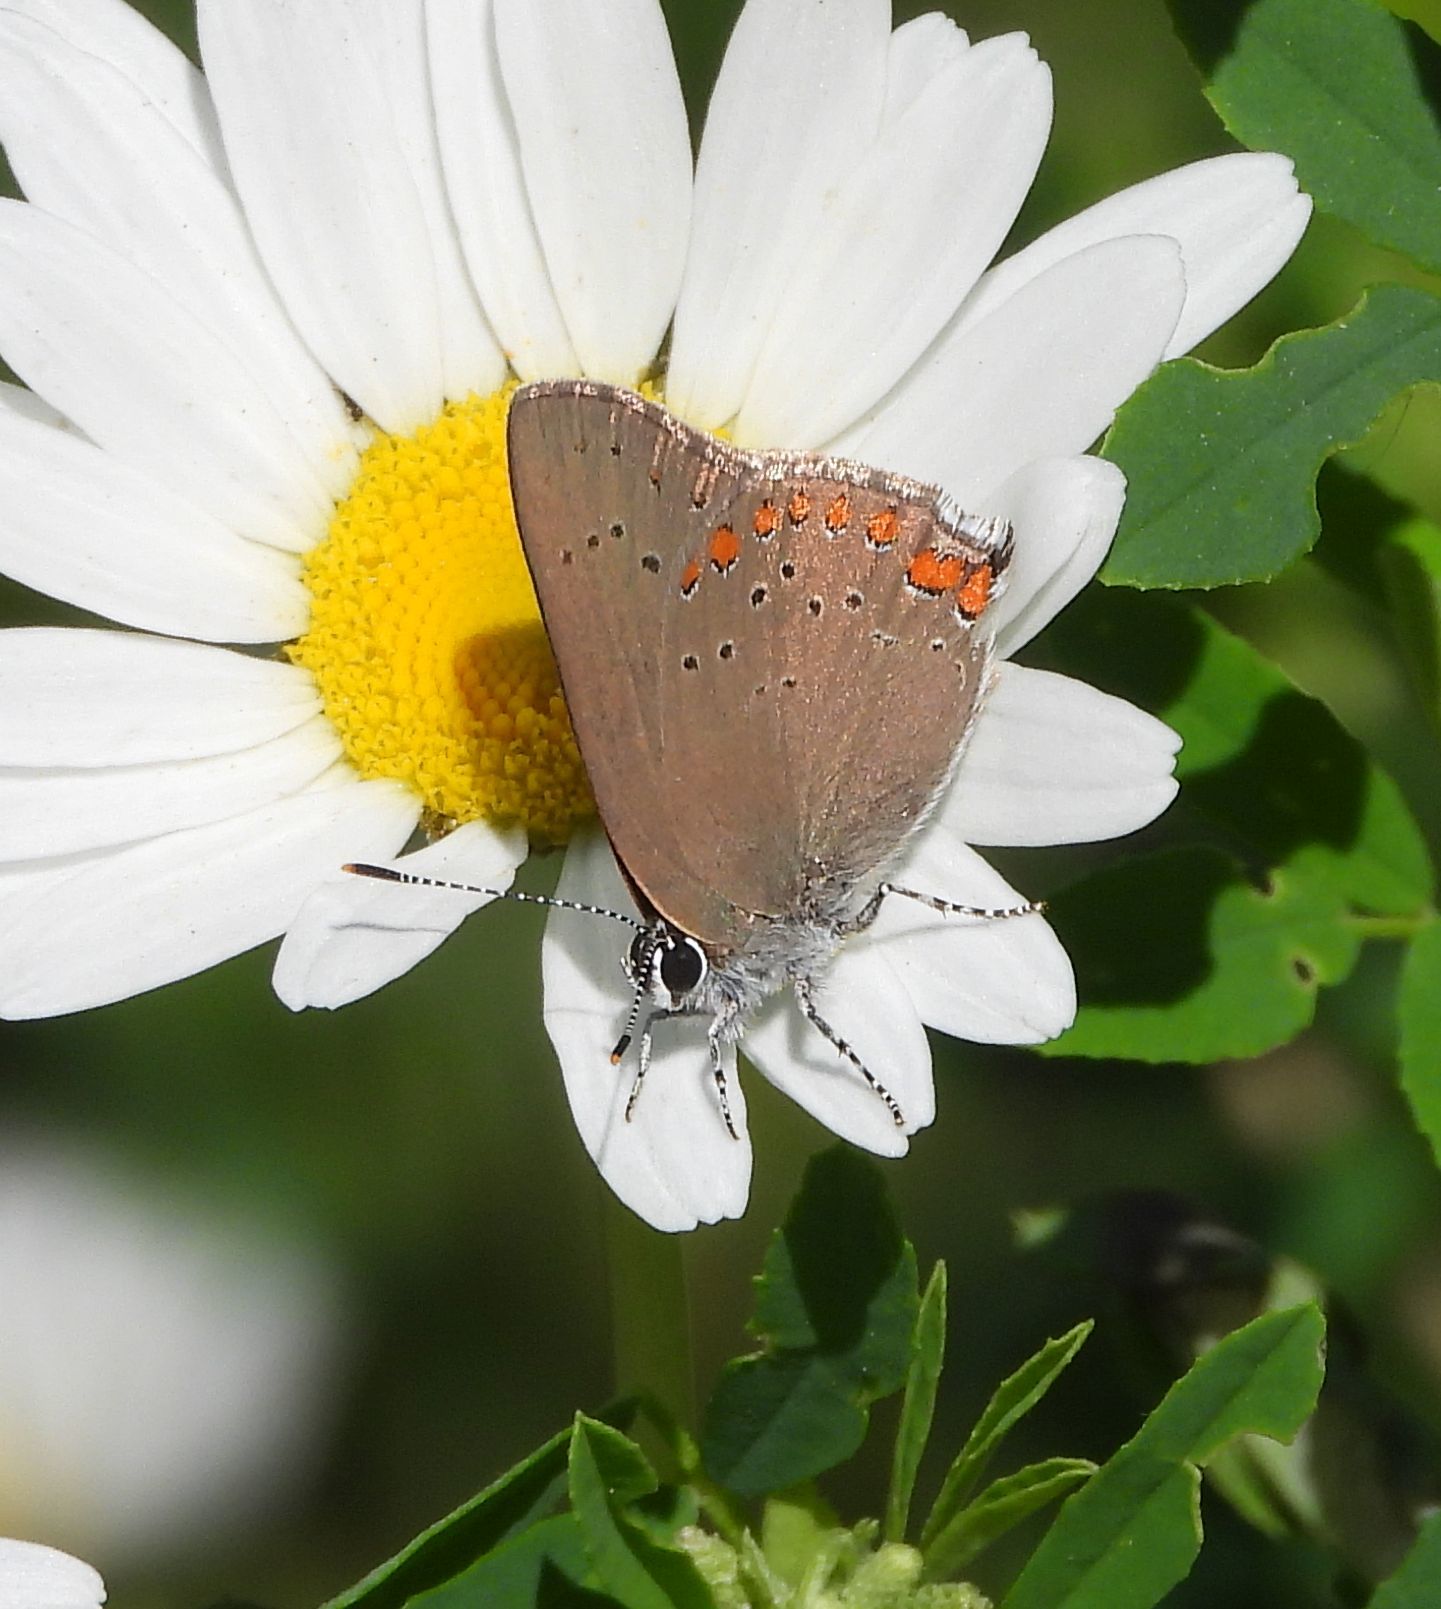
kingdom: Animalia
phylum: Arthropoda
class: Insecta
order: Lepidoptera
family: Lycaenidae
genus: Harkenclenus
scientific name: Harkenclenus titus
